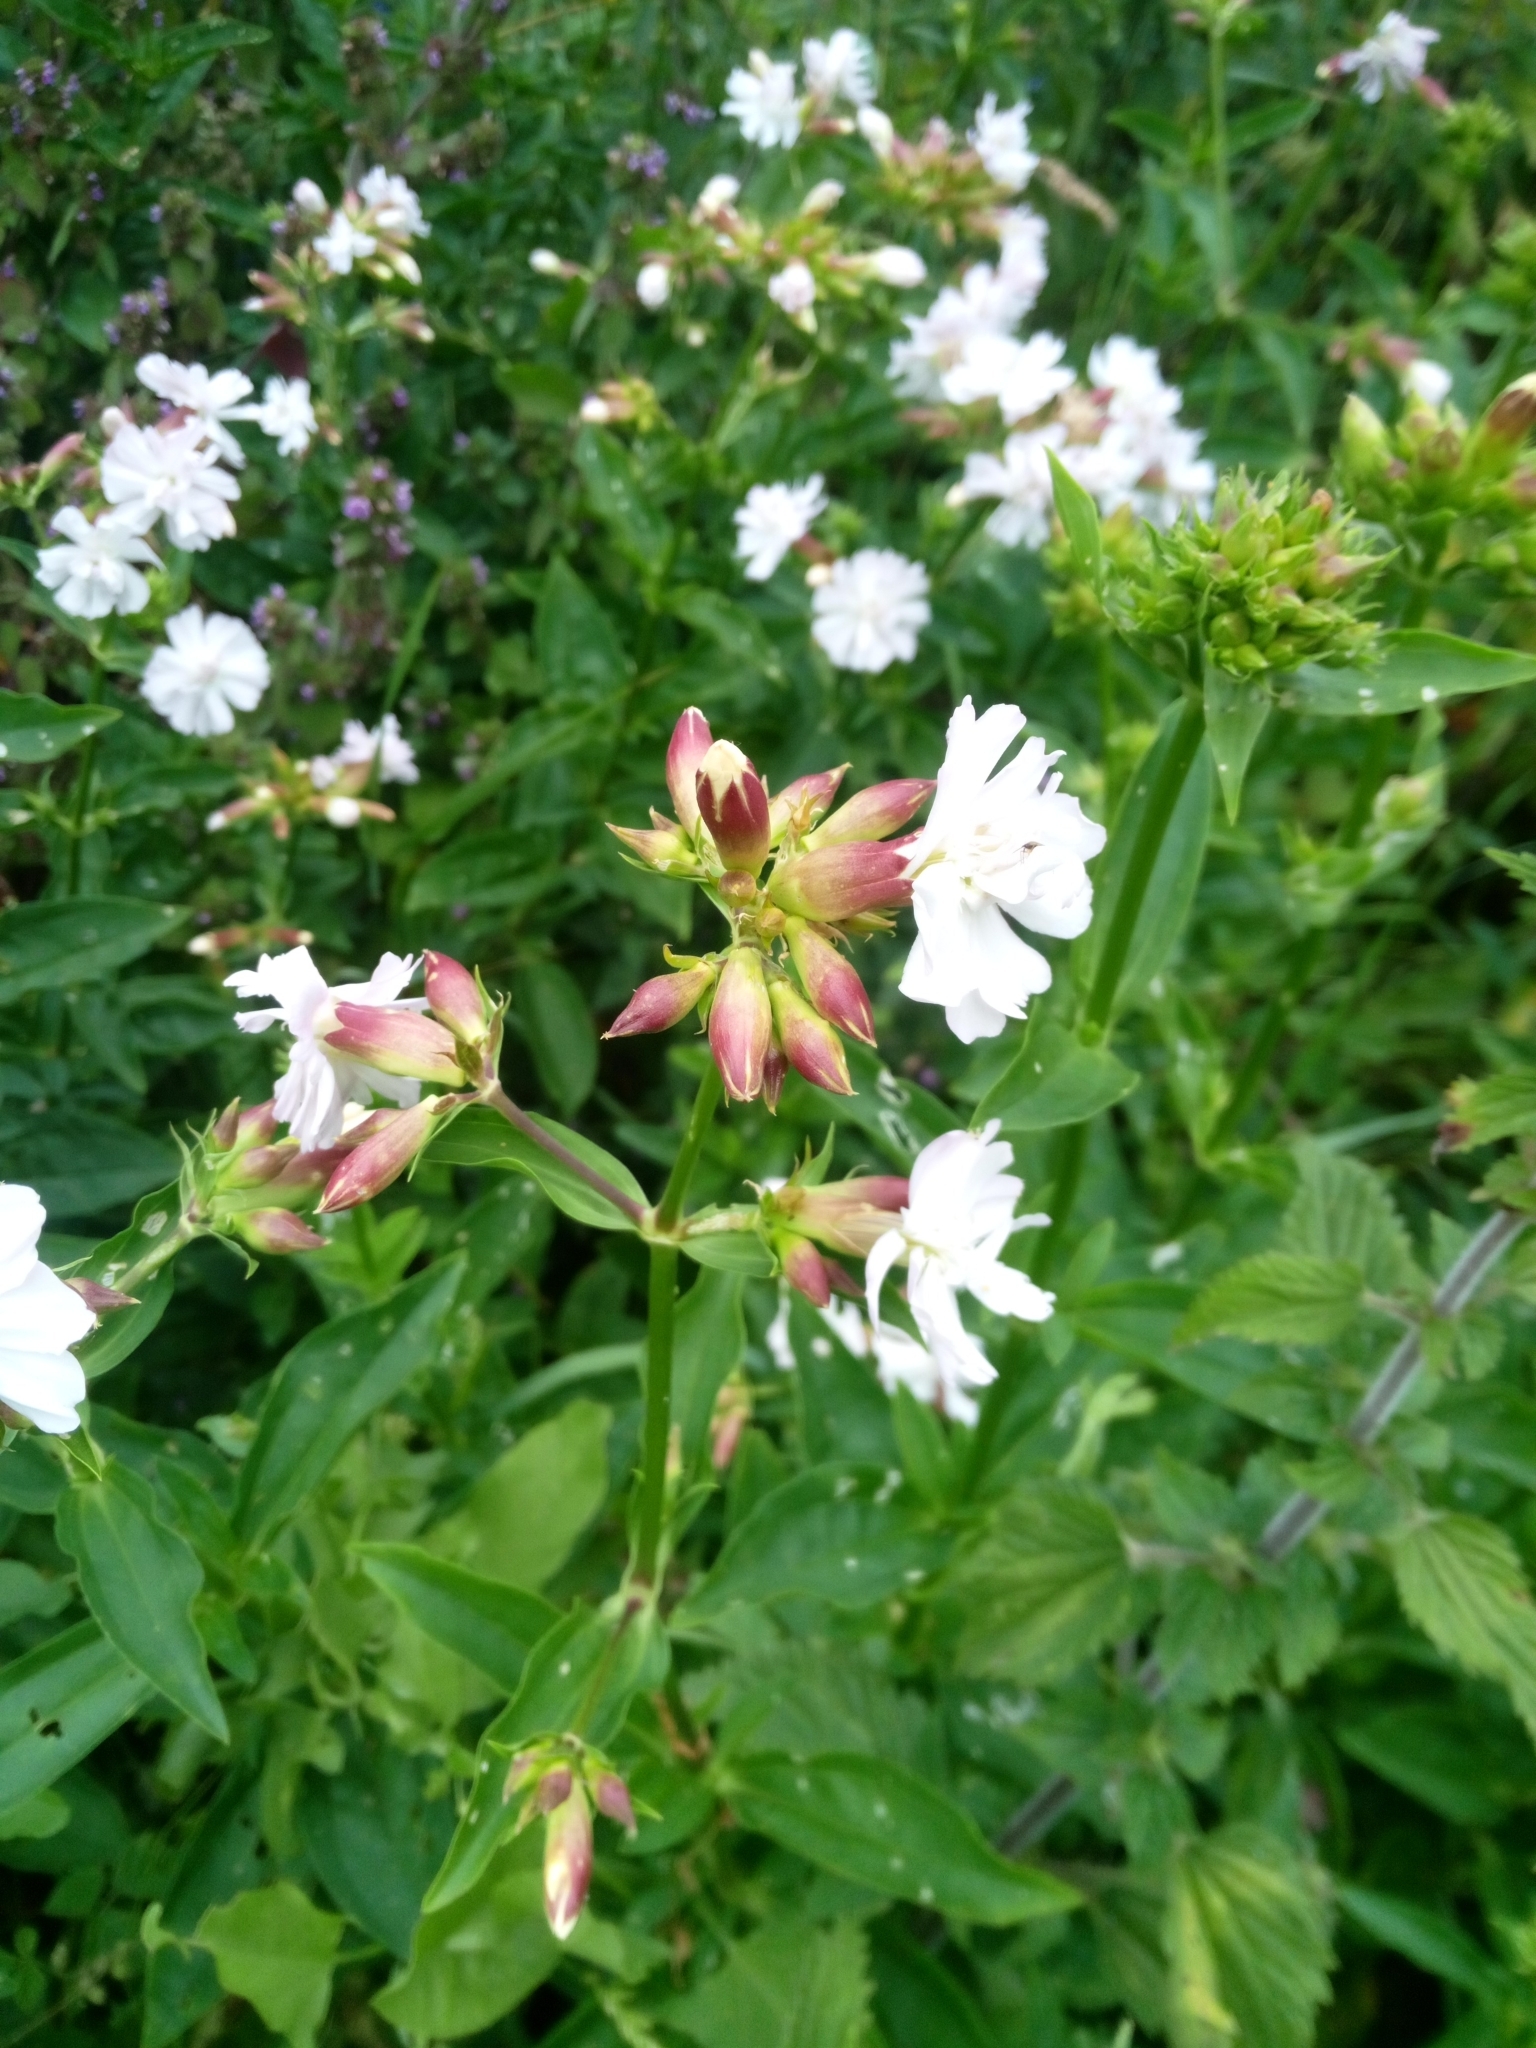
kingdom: Plantae
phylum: Tracheophyta
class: Magnoliopsida
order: Caryophyllales
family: Caryophyllaceae
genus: Saponaria
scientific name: Saponaria officinalis
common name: Soapwort
